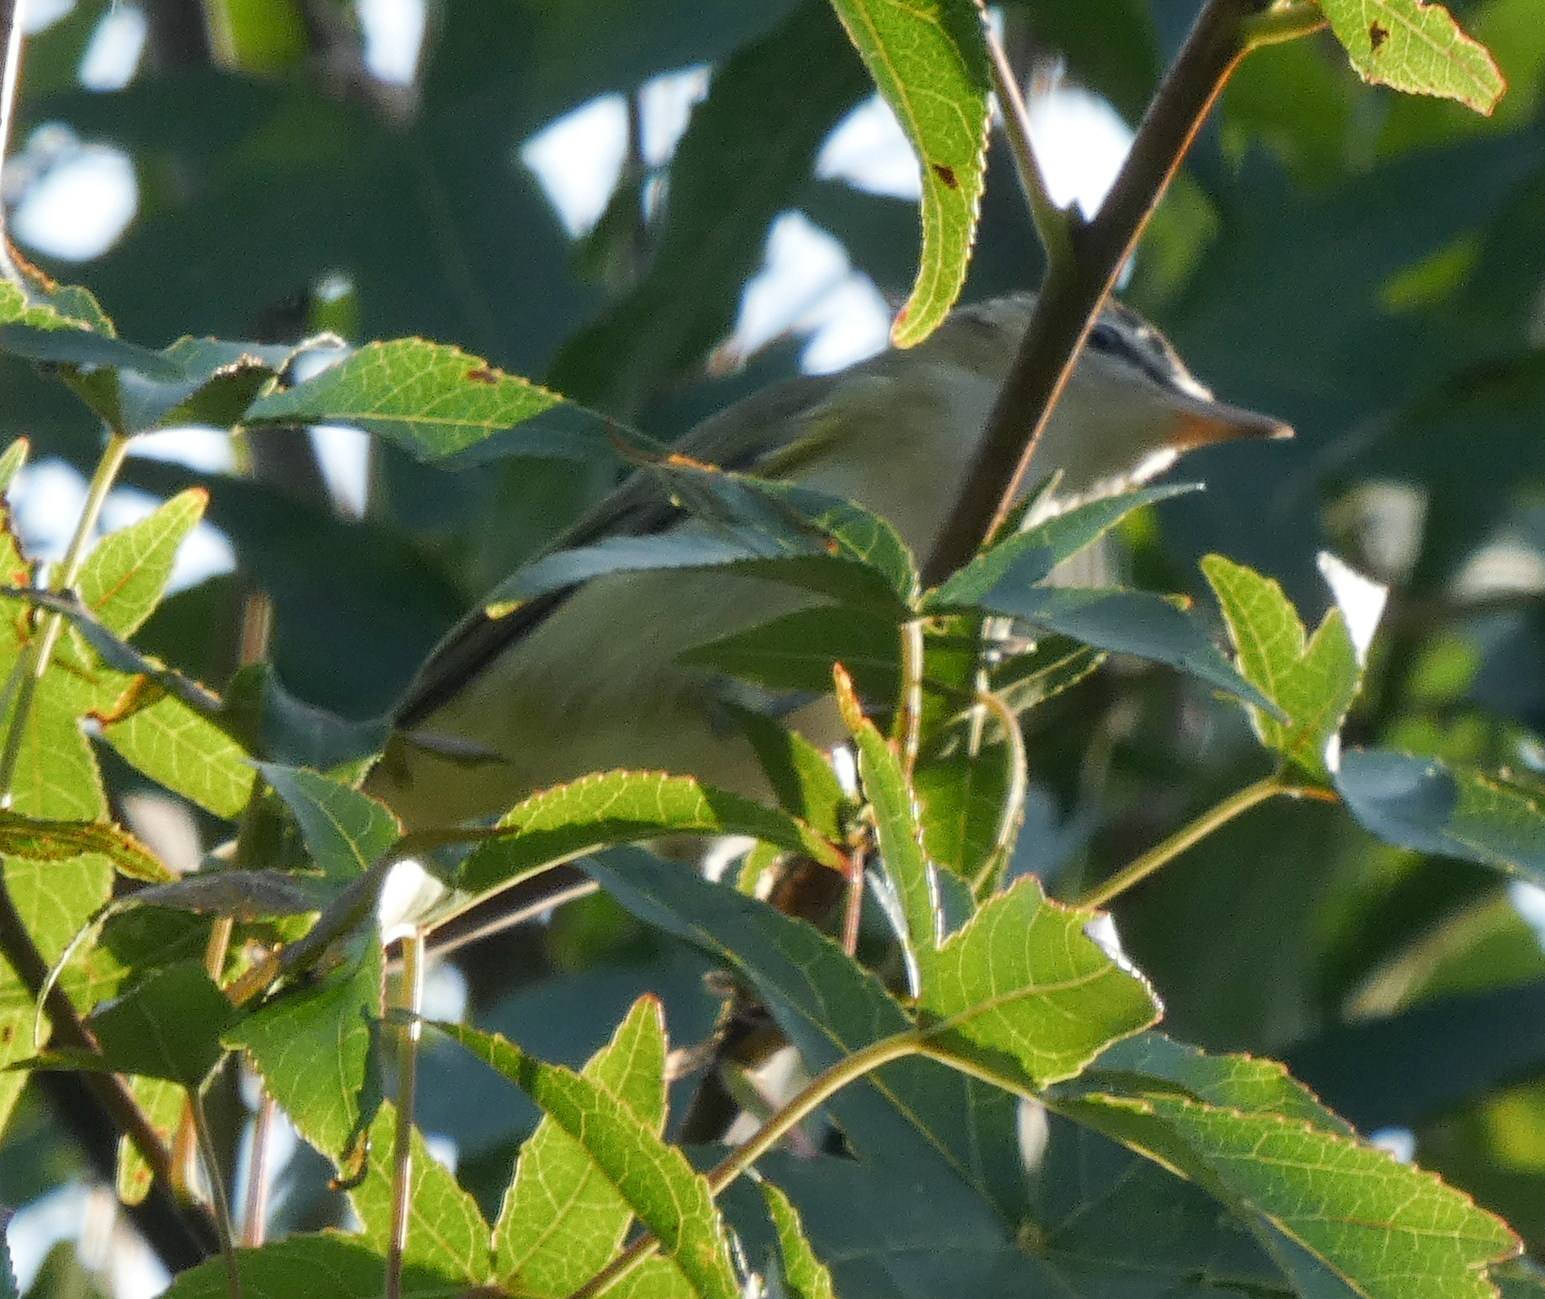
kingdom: Animalia
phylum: Chordata
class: Aves
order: Passeriformes
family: Vireonidae
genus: Vireo
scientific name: Vireo olivaceus
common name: Red-eyed vireo
